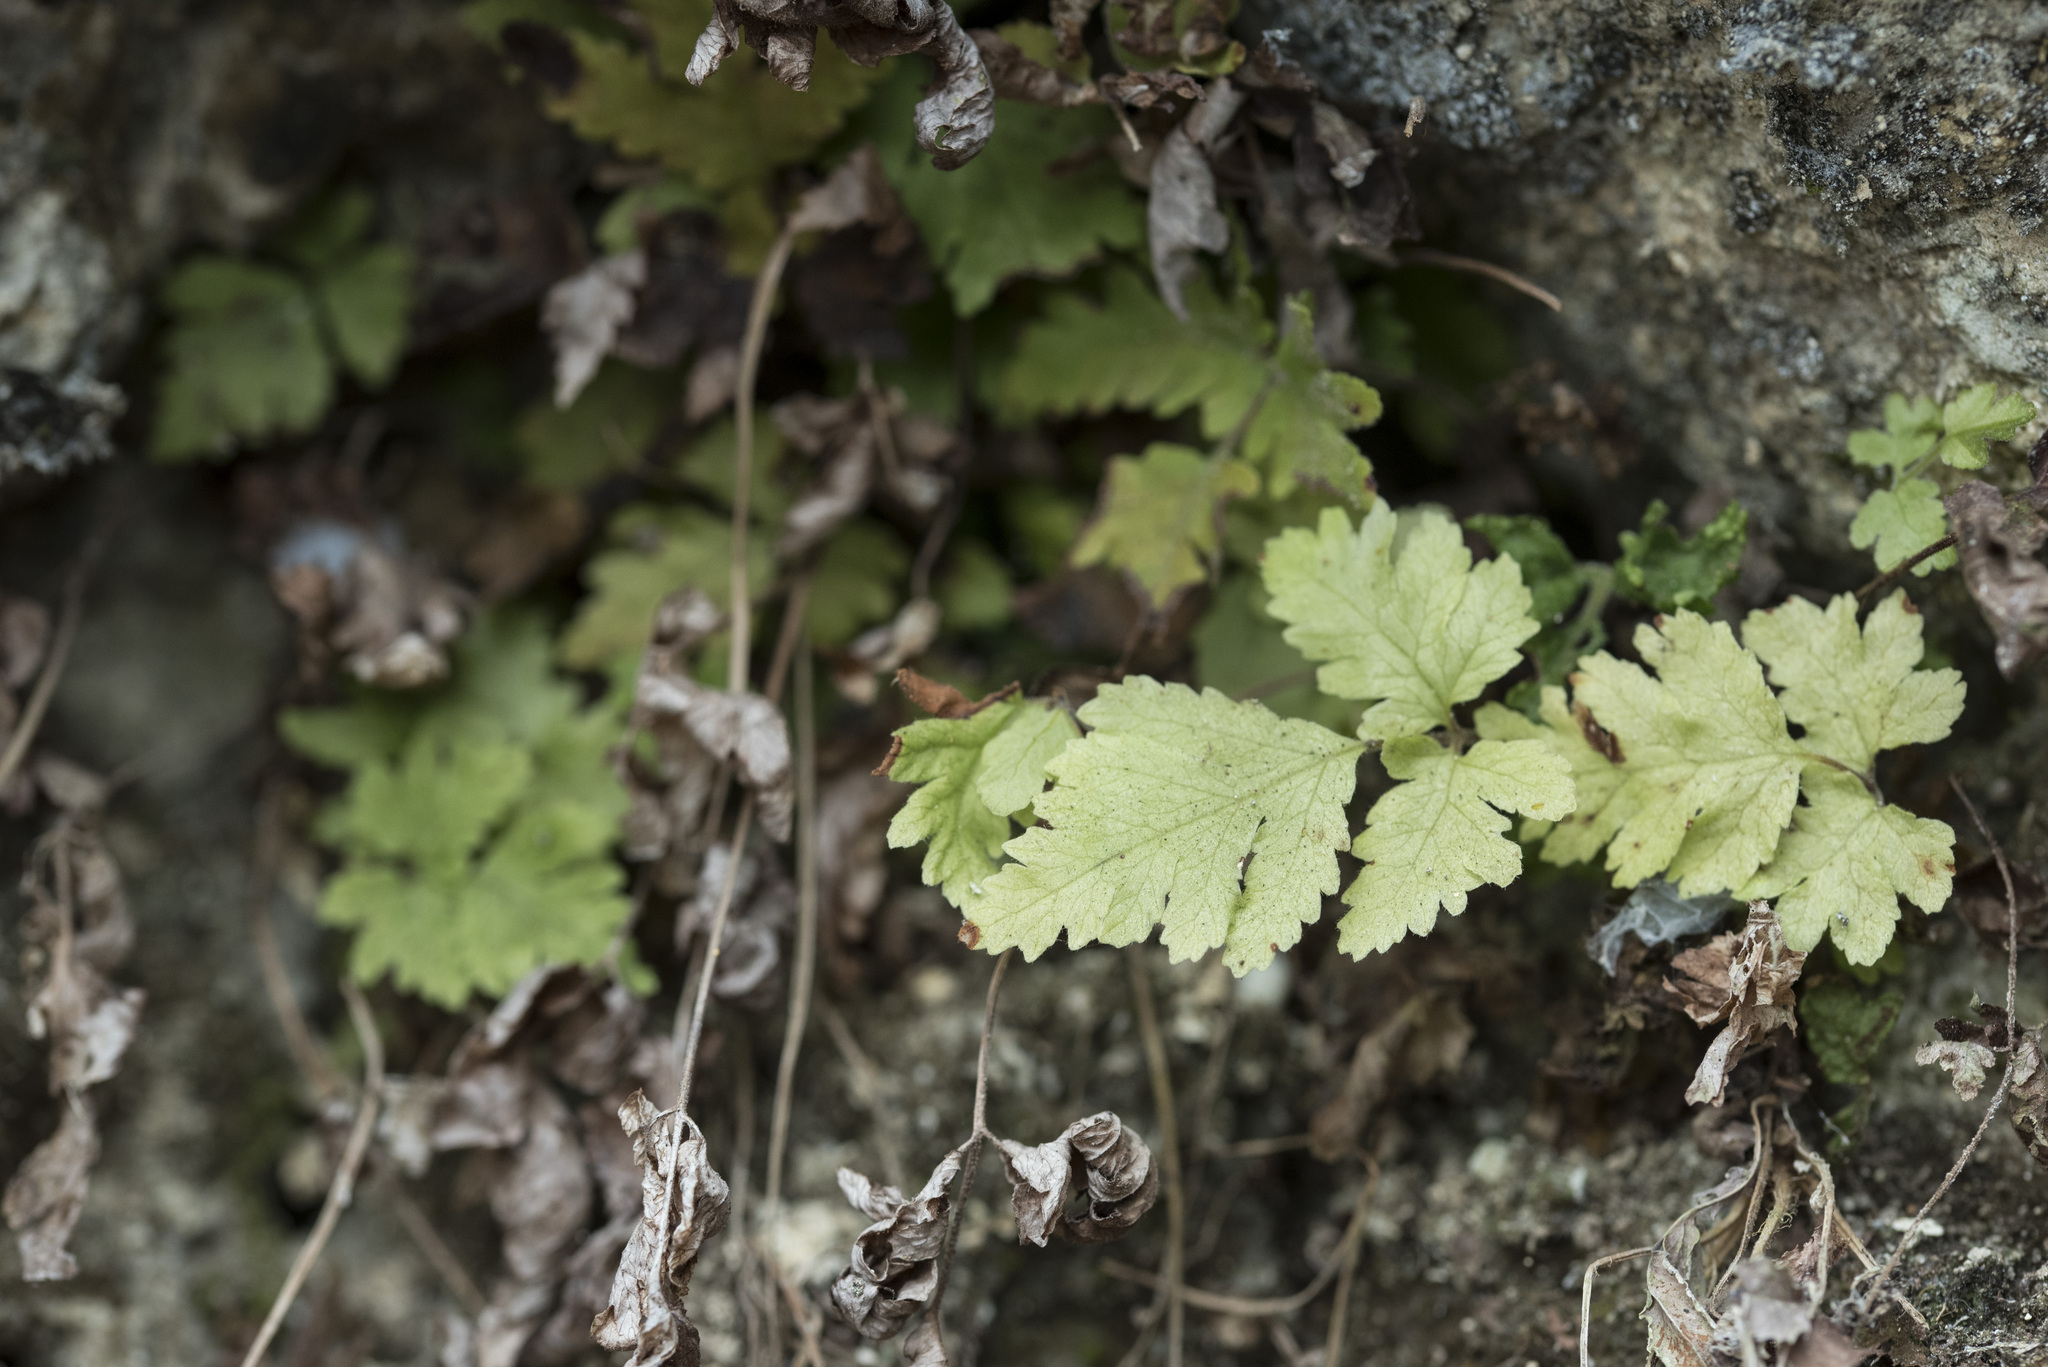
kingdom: Plantae
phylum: Tracheophyta
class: Polypodiopsida
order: Polypodiales
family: Tectariaceae
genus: Tectaria
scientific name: Tectaria membranacea
